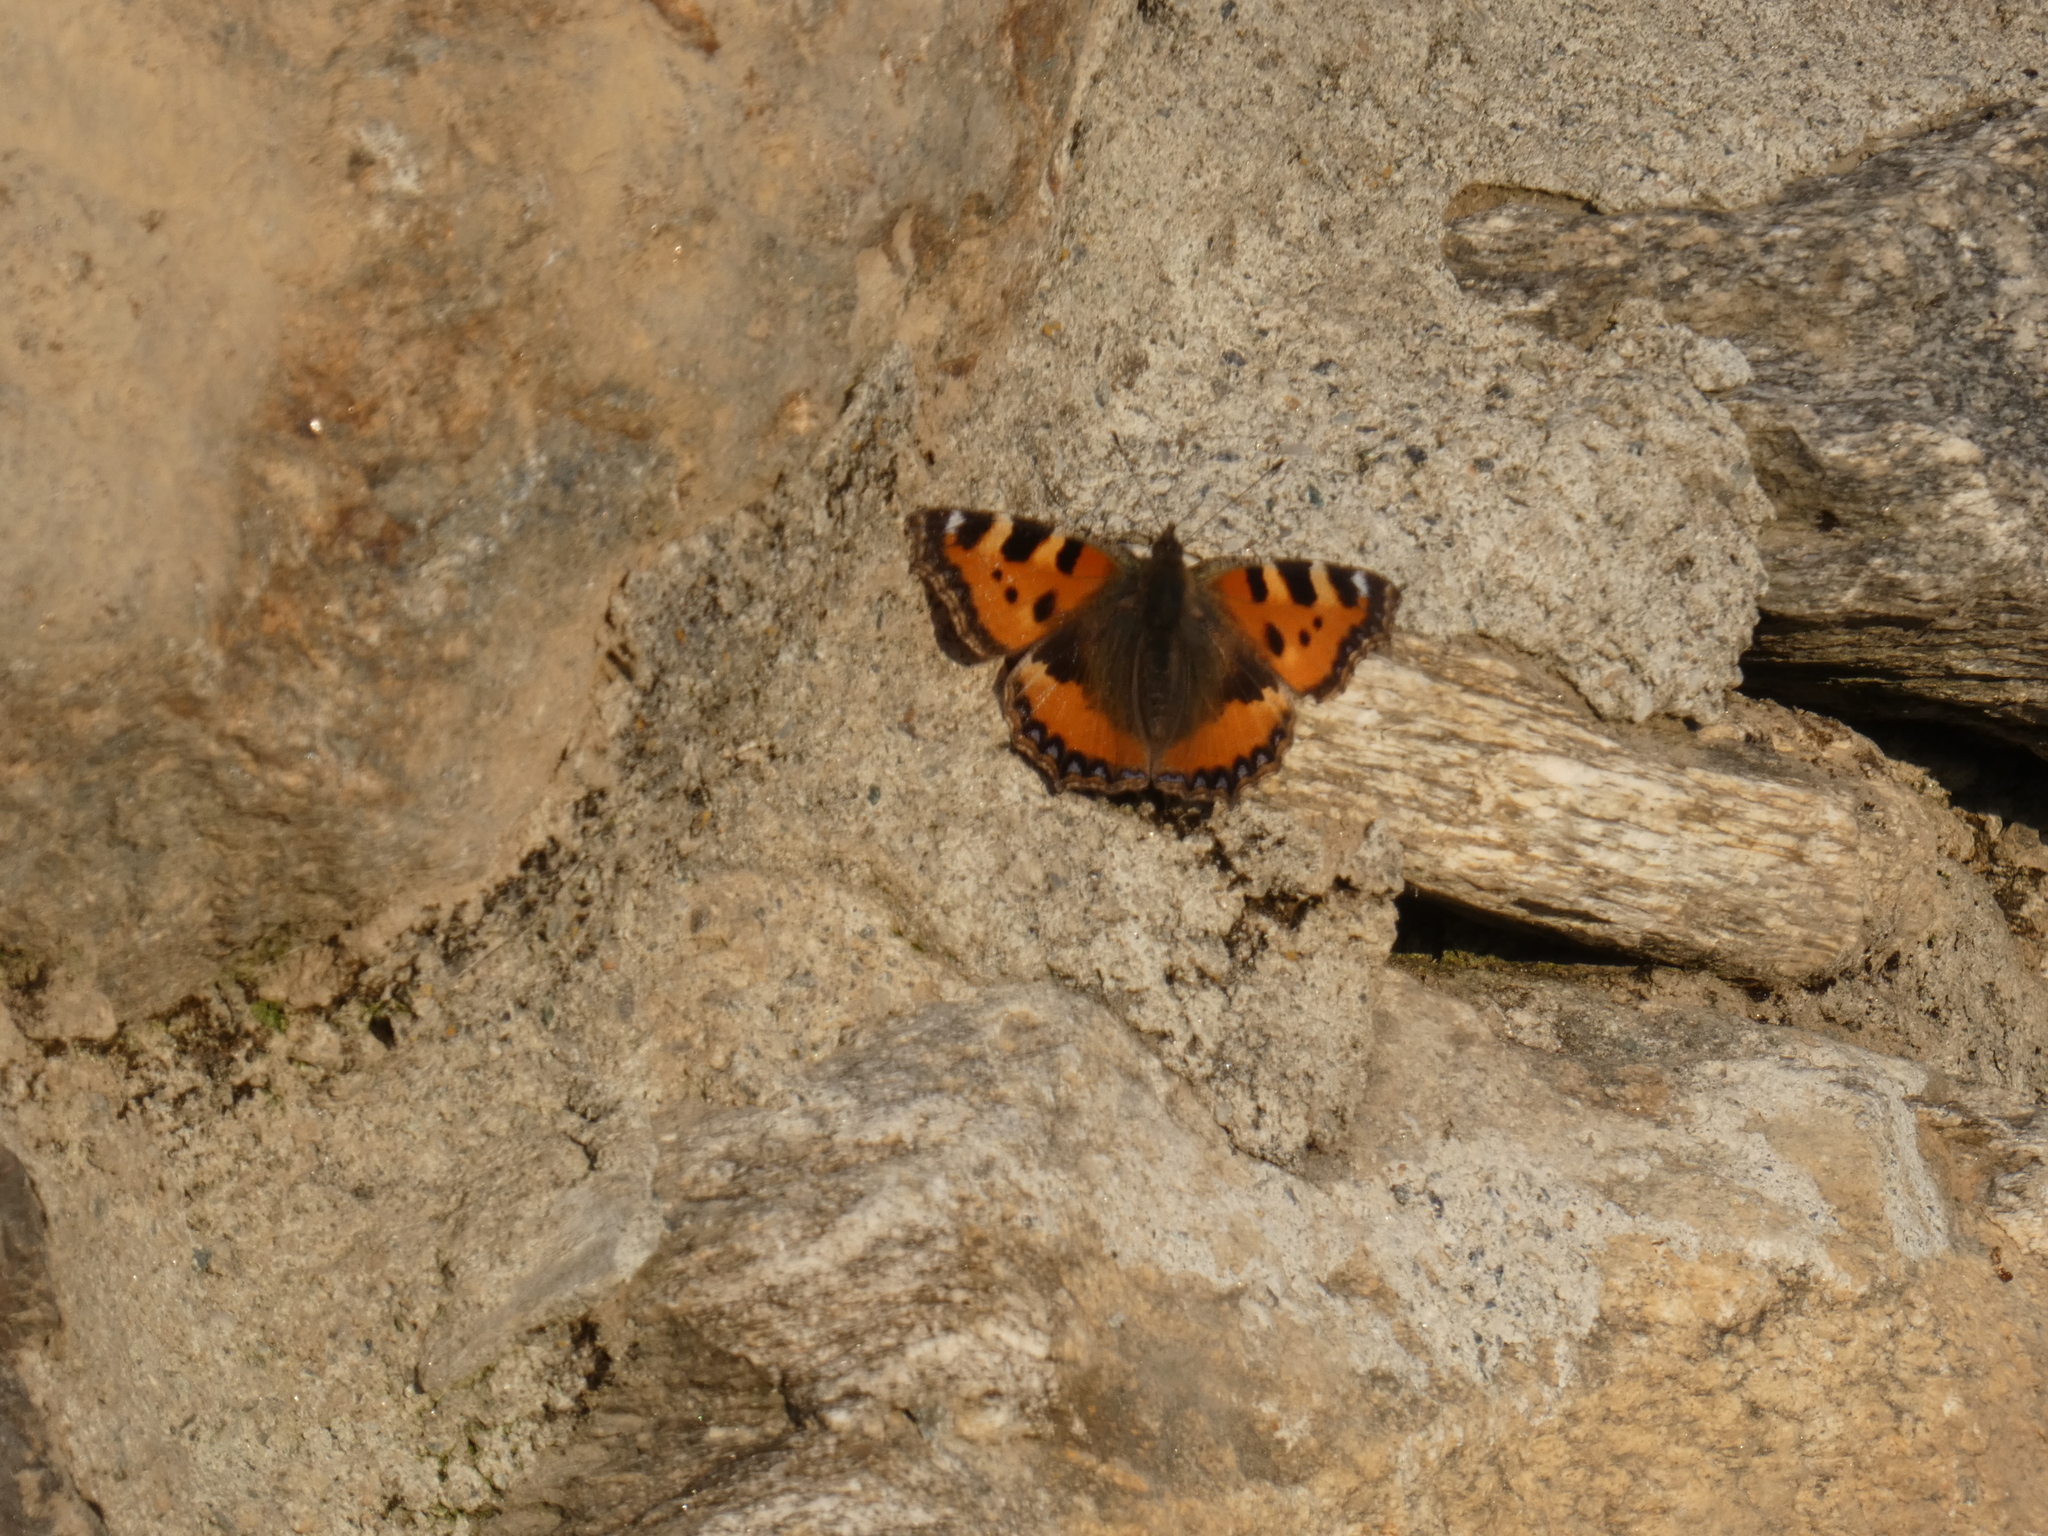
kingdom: Animalia
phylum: Arthropoda
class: Insecta
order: Lepidoptera
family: Nymphalidae
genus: Aglais
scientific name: Aglais urticae
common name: Small tortoiseshell
